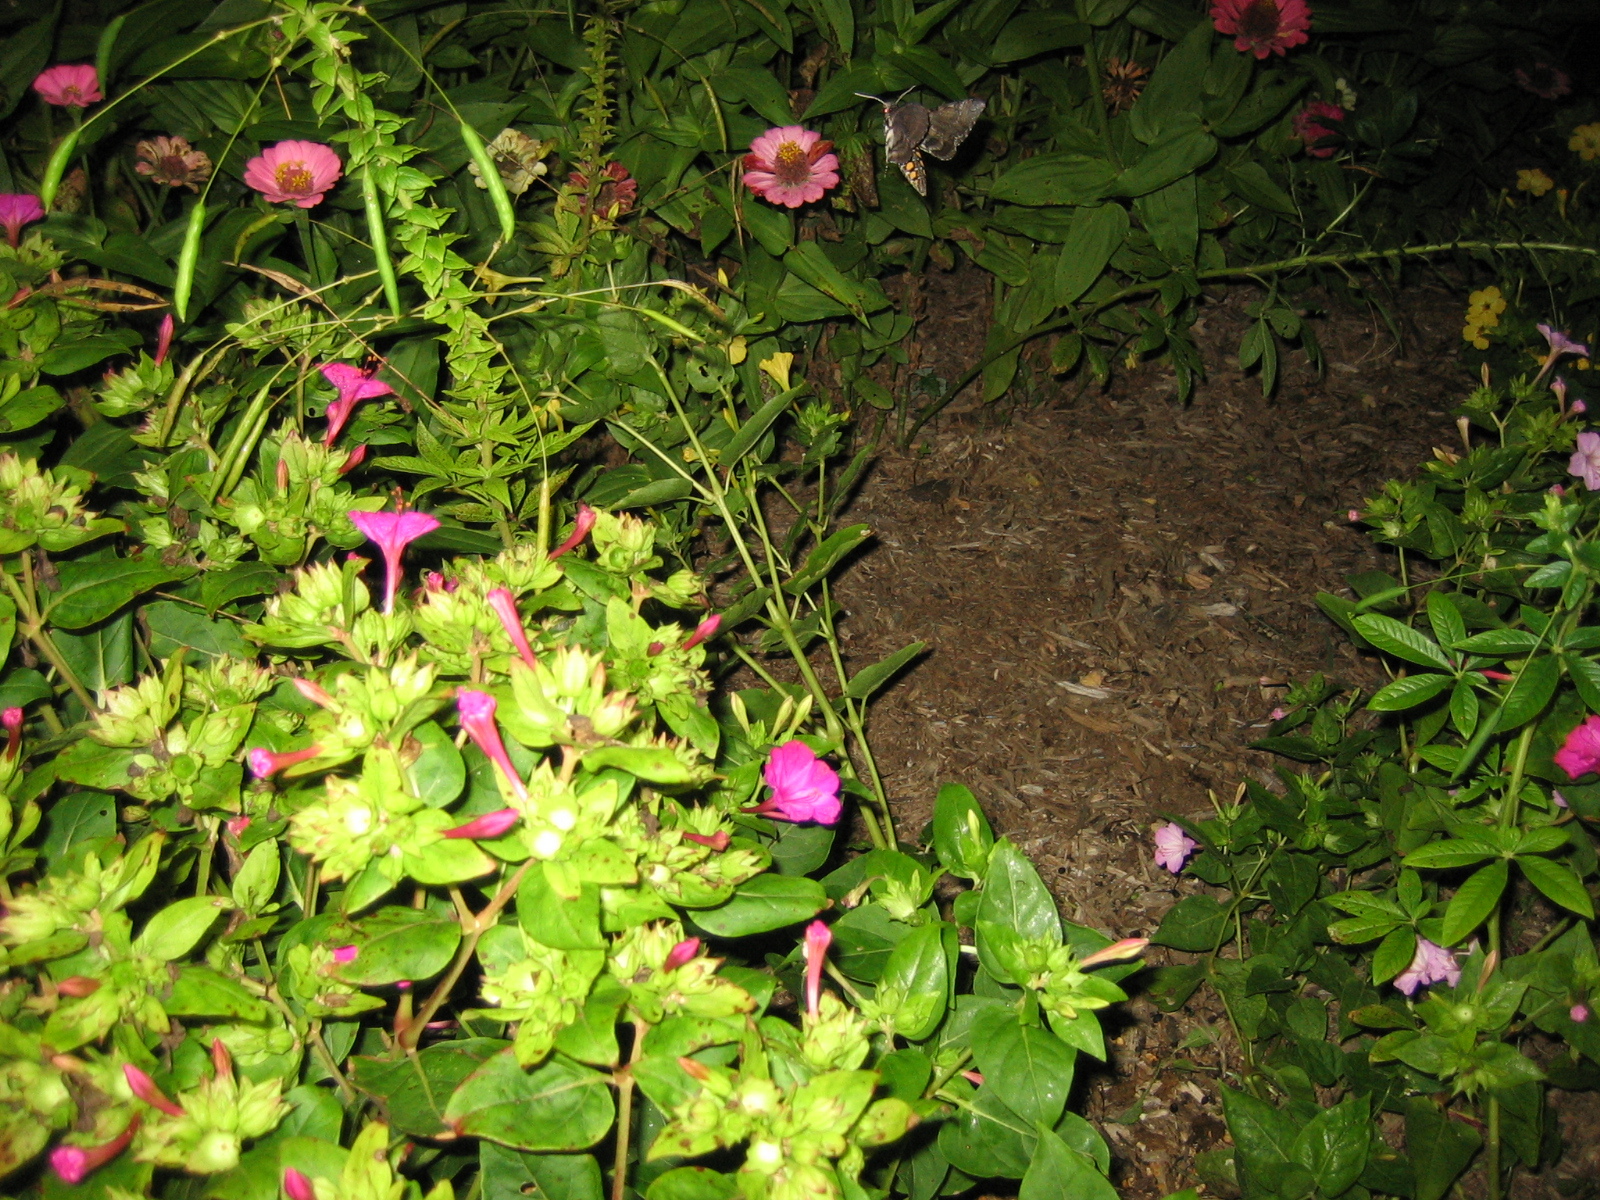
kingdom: Animalia
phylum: Arthropoda
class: Insecta
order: Lepidoptera
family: Sphingidae
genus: Manduca
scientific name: Manduca sexta
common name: Carolina sphinx
